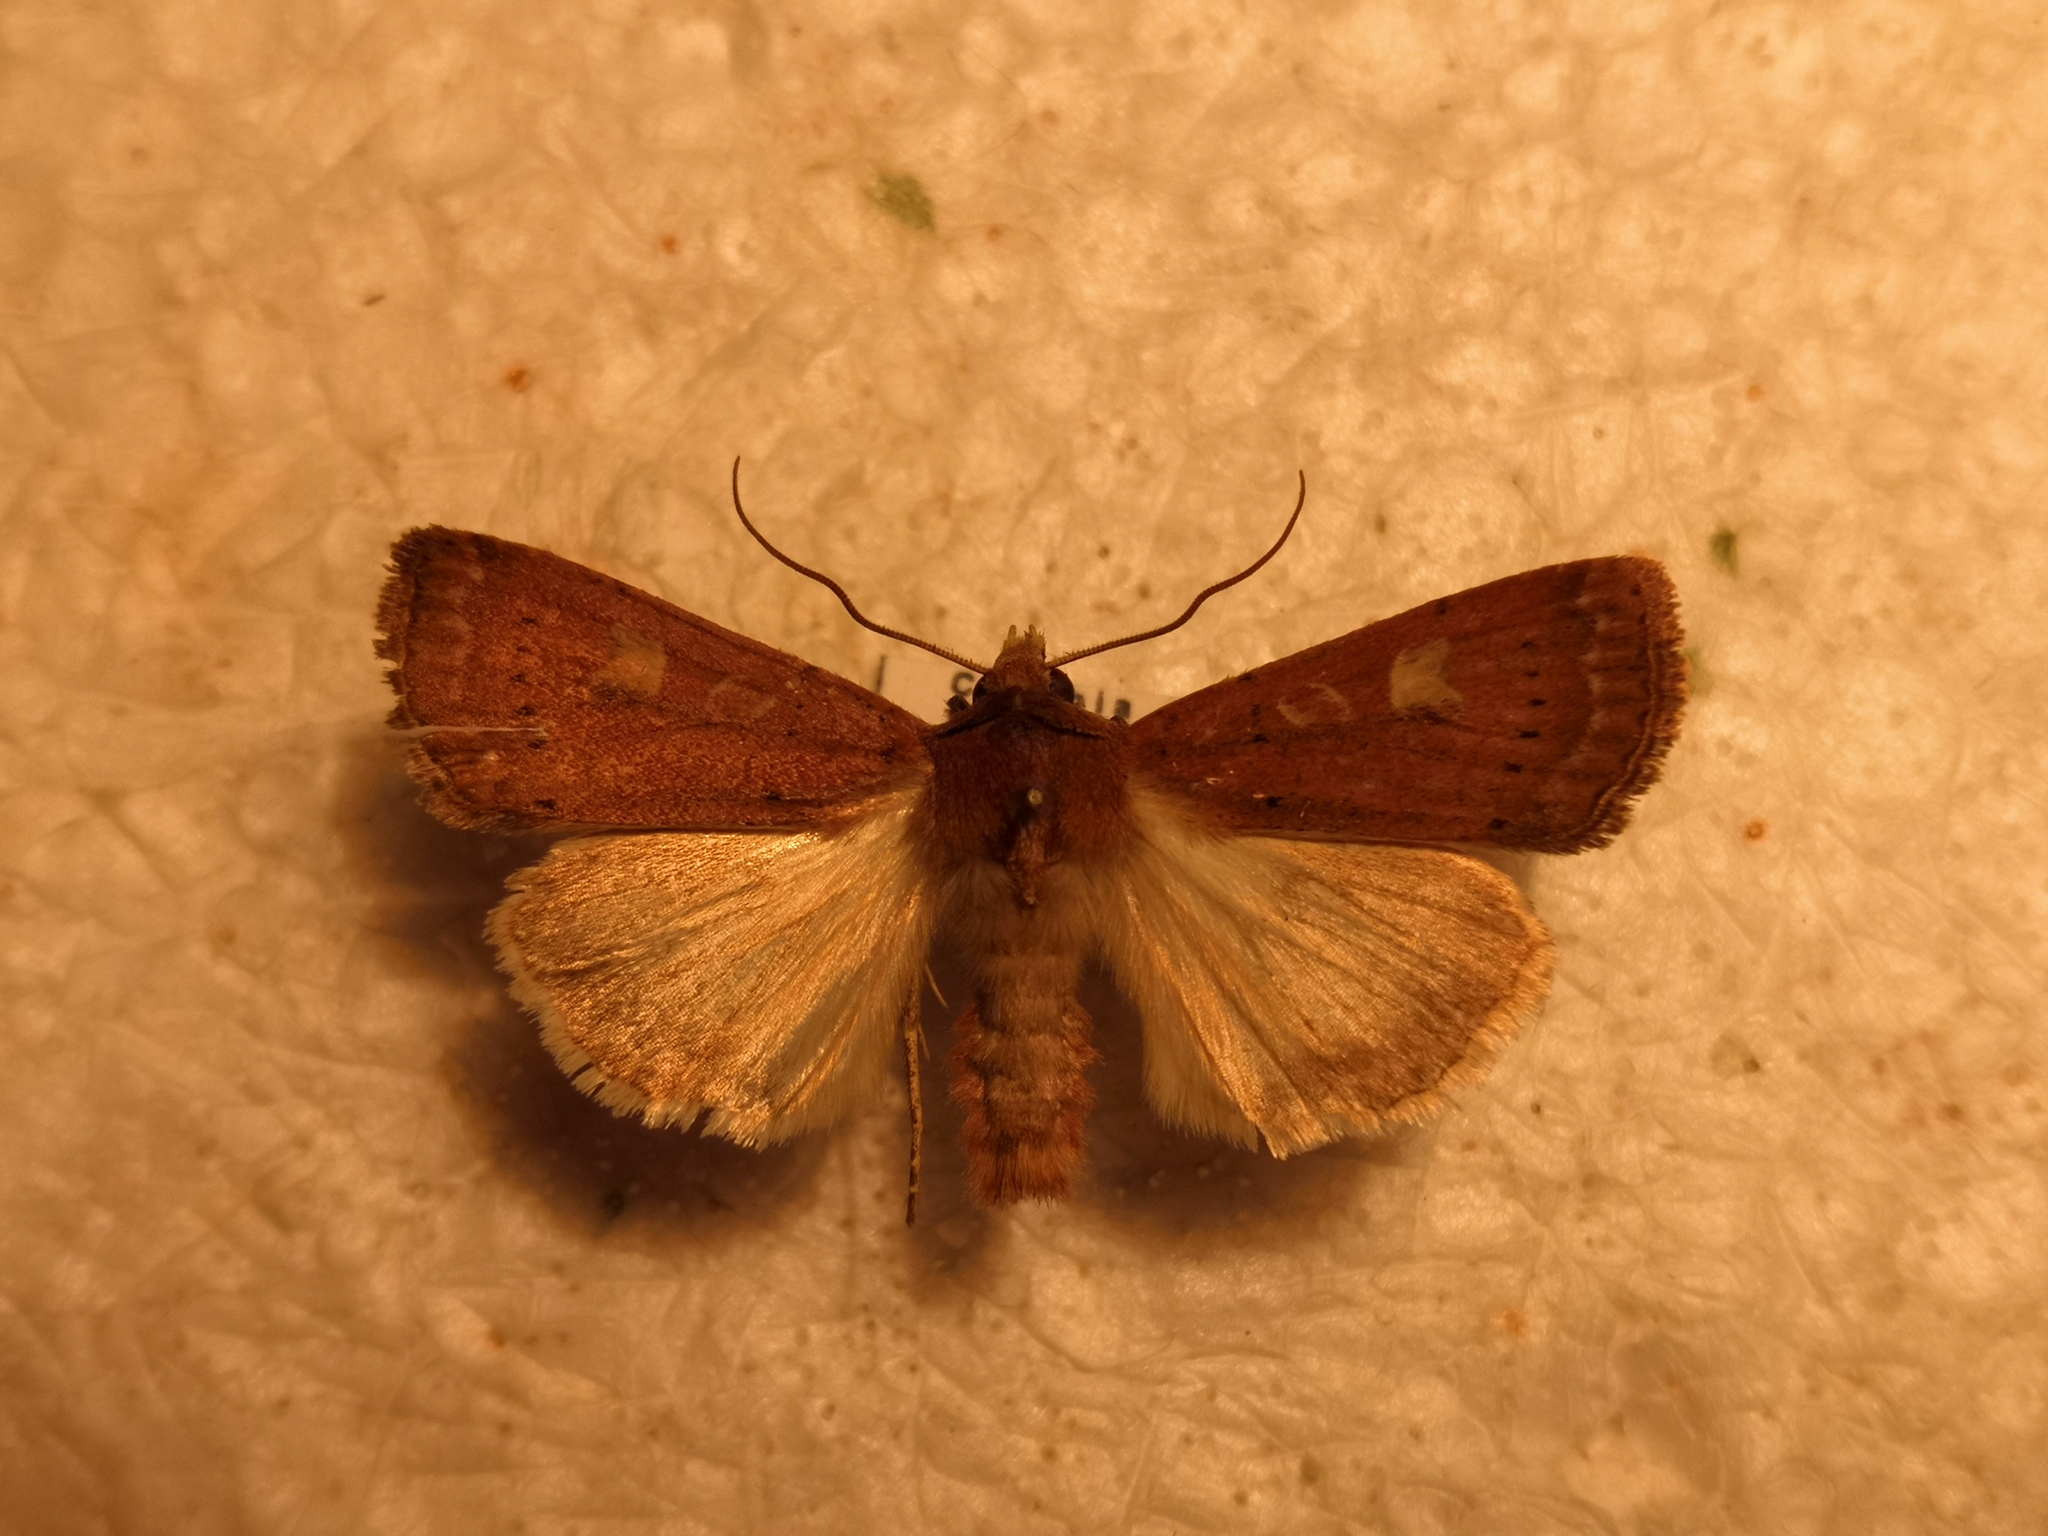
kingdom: Animalia
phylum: Arthropoda
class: Insecta
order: Lepidoptera
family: Noctuidae
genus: Xestia
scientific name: Xestia xanthographa
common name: Square-spot rustic
